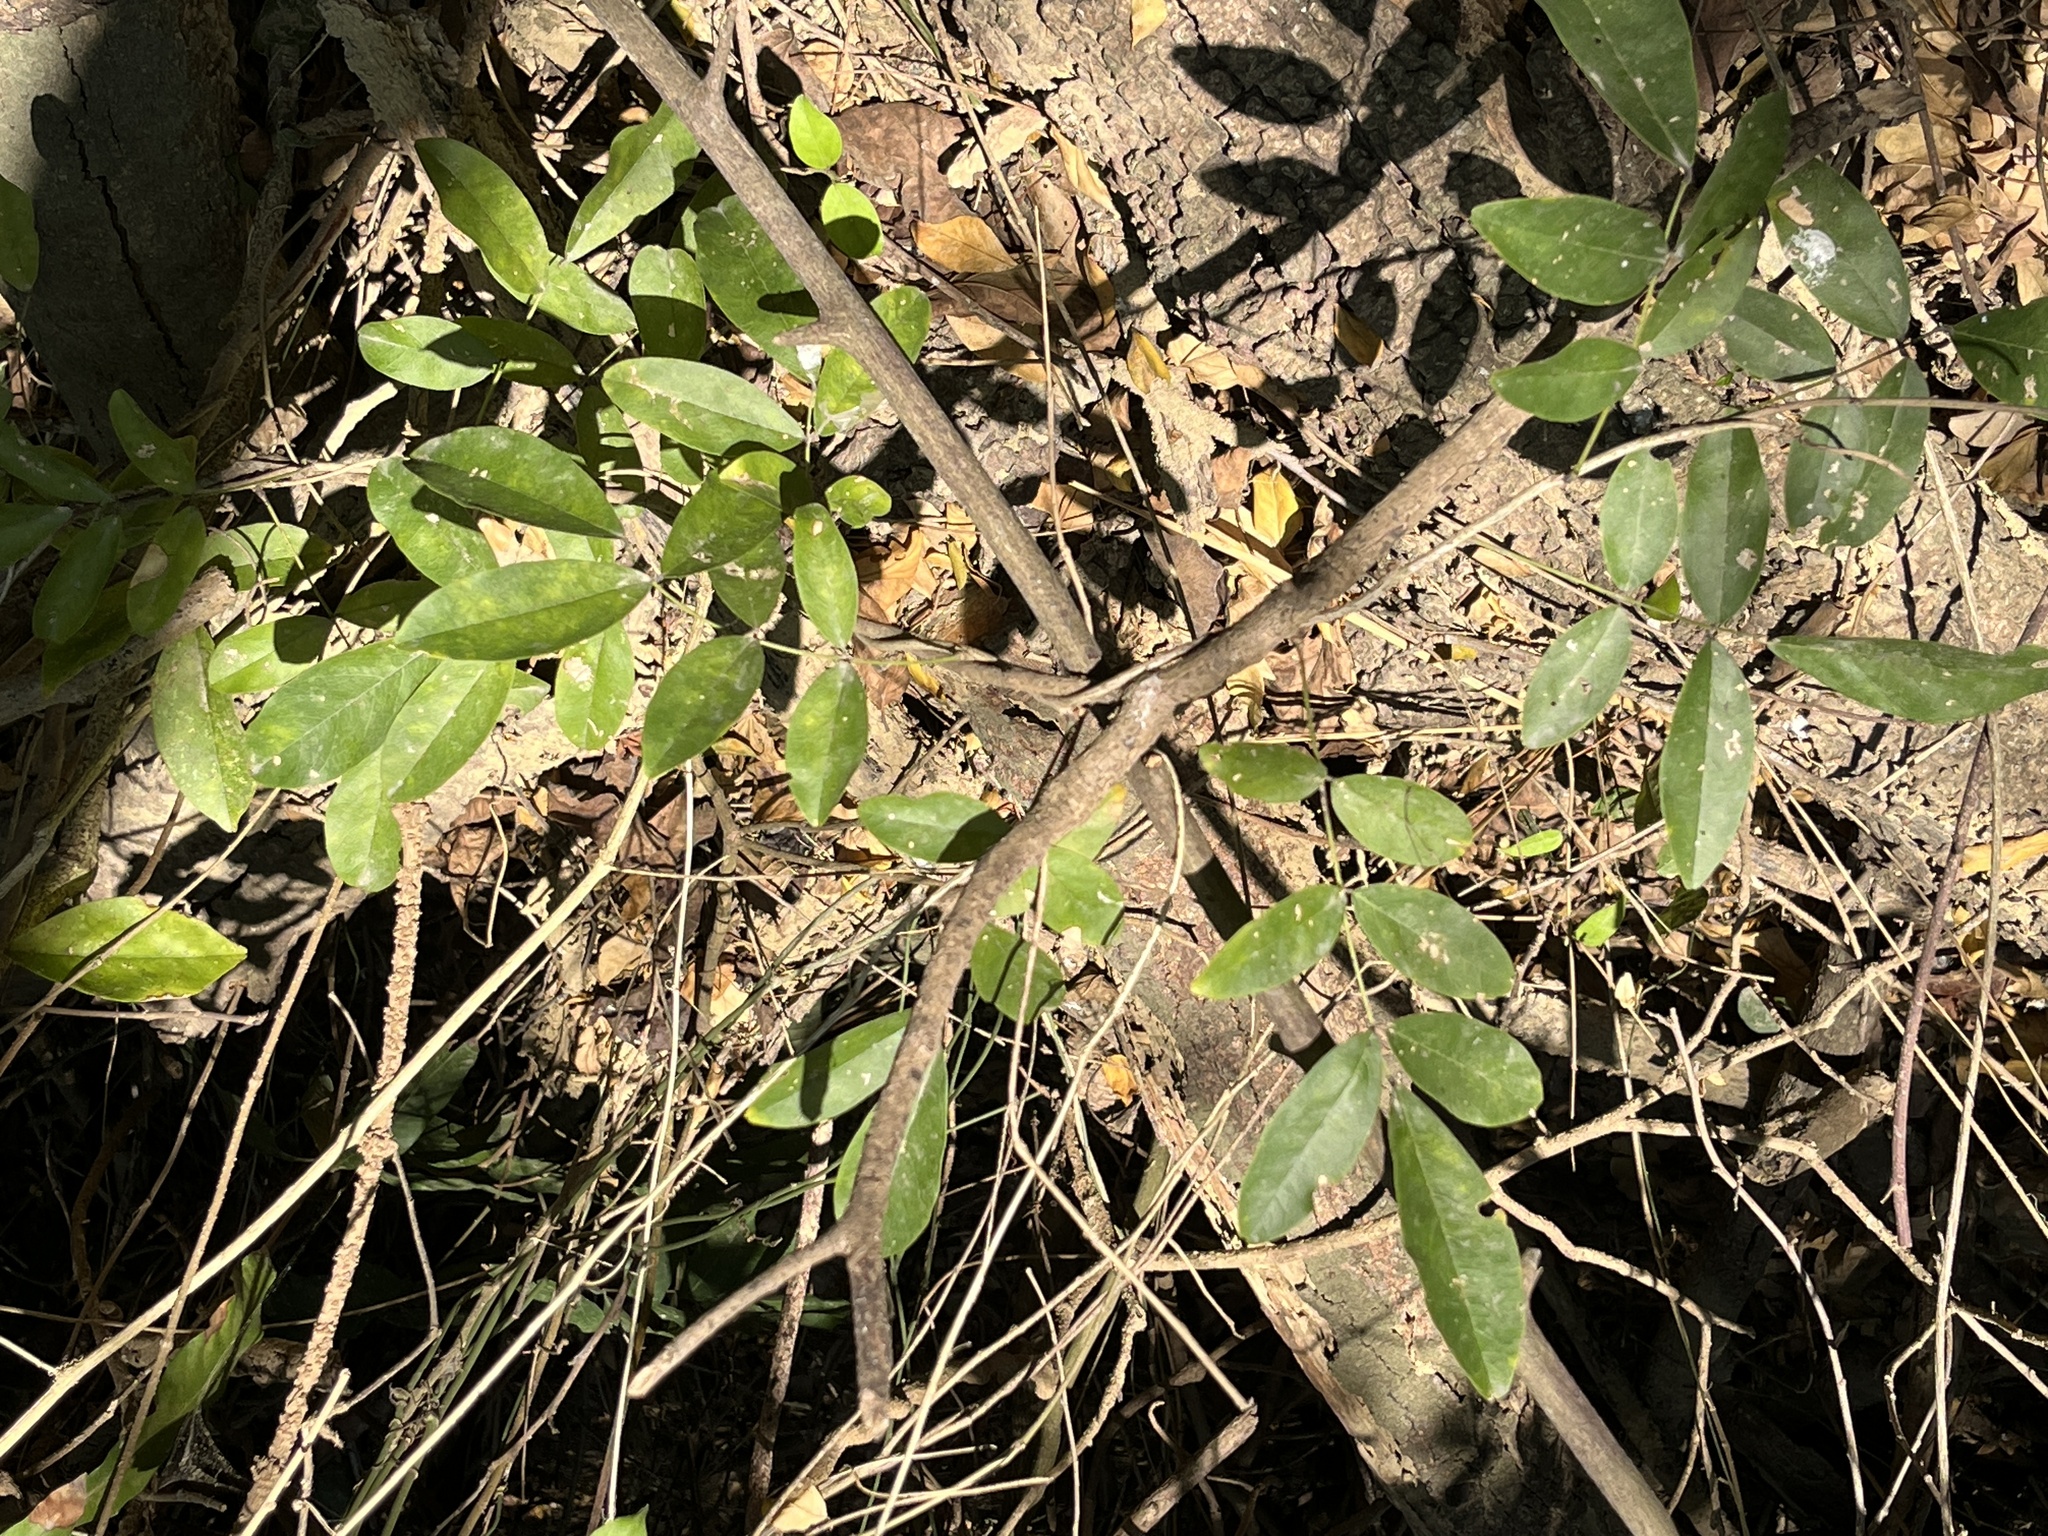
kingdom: Plantae
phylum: Tracheophyta
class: Magnoliopsida
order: Fabales
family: Fabaceae
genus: Wisteriopsis
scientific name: Wisteriopsis reticulata
